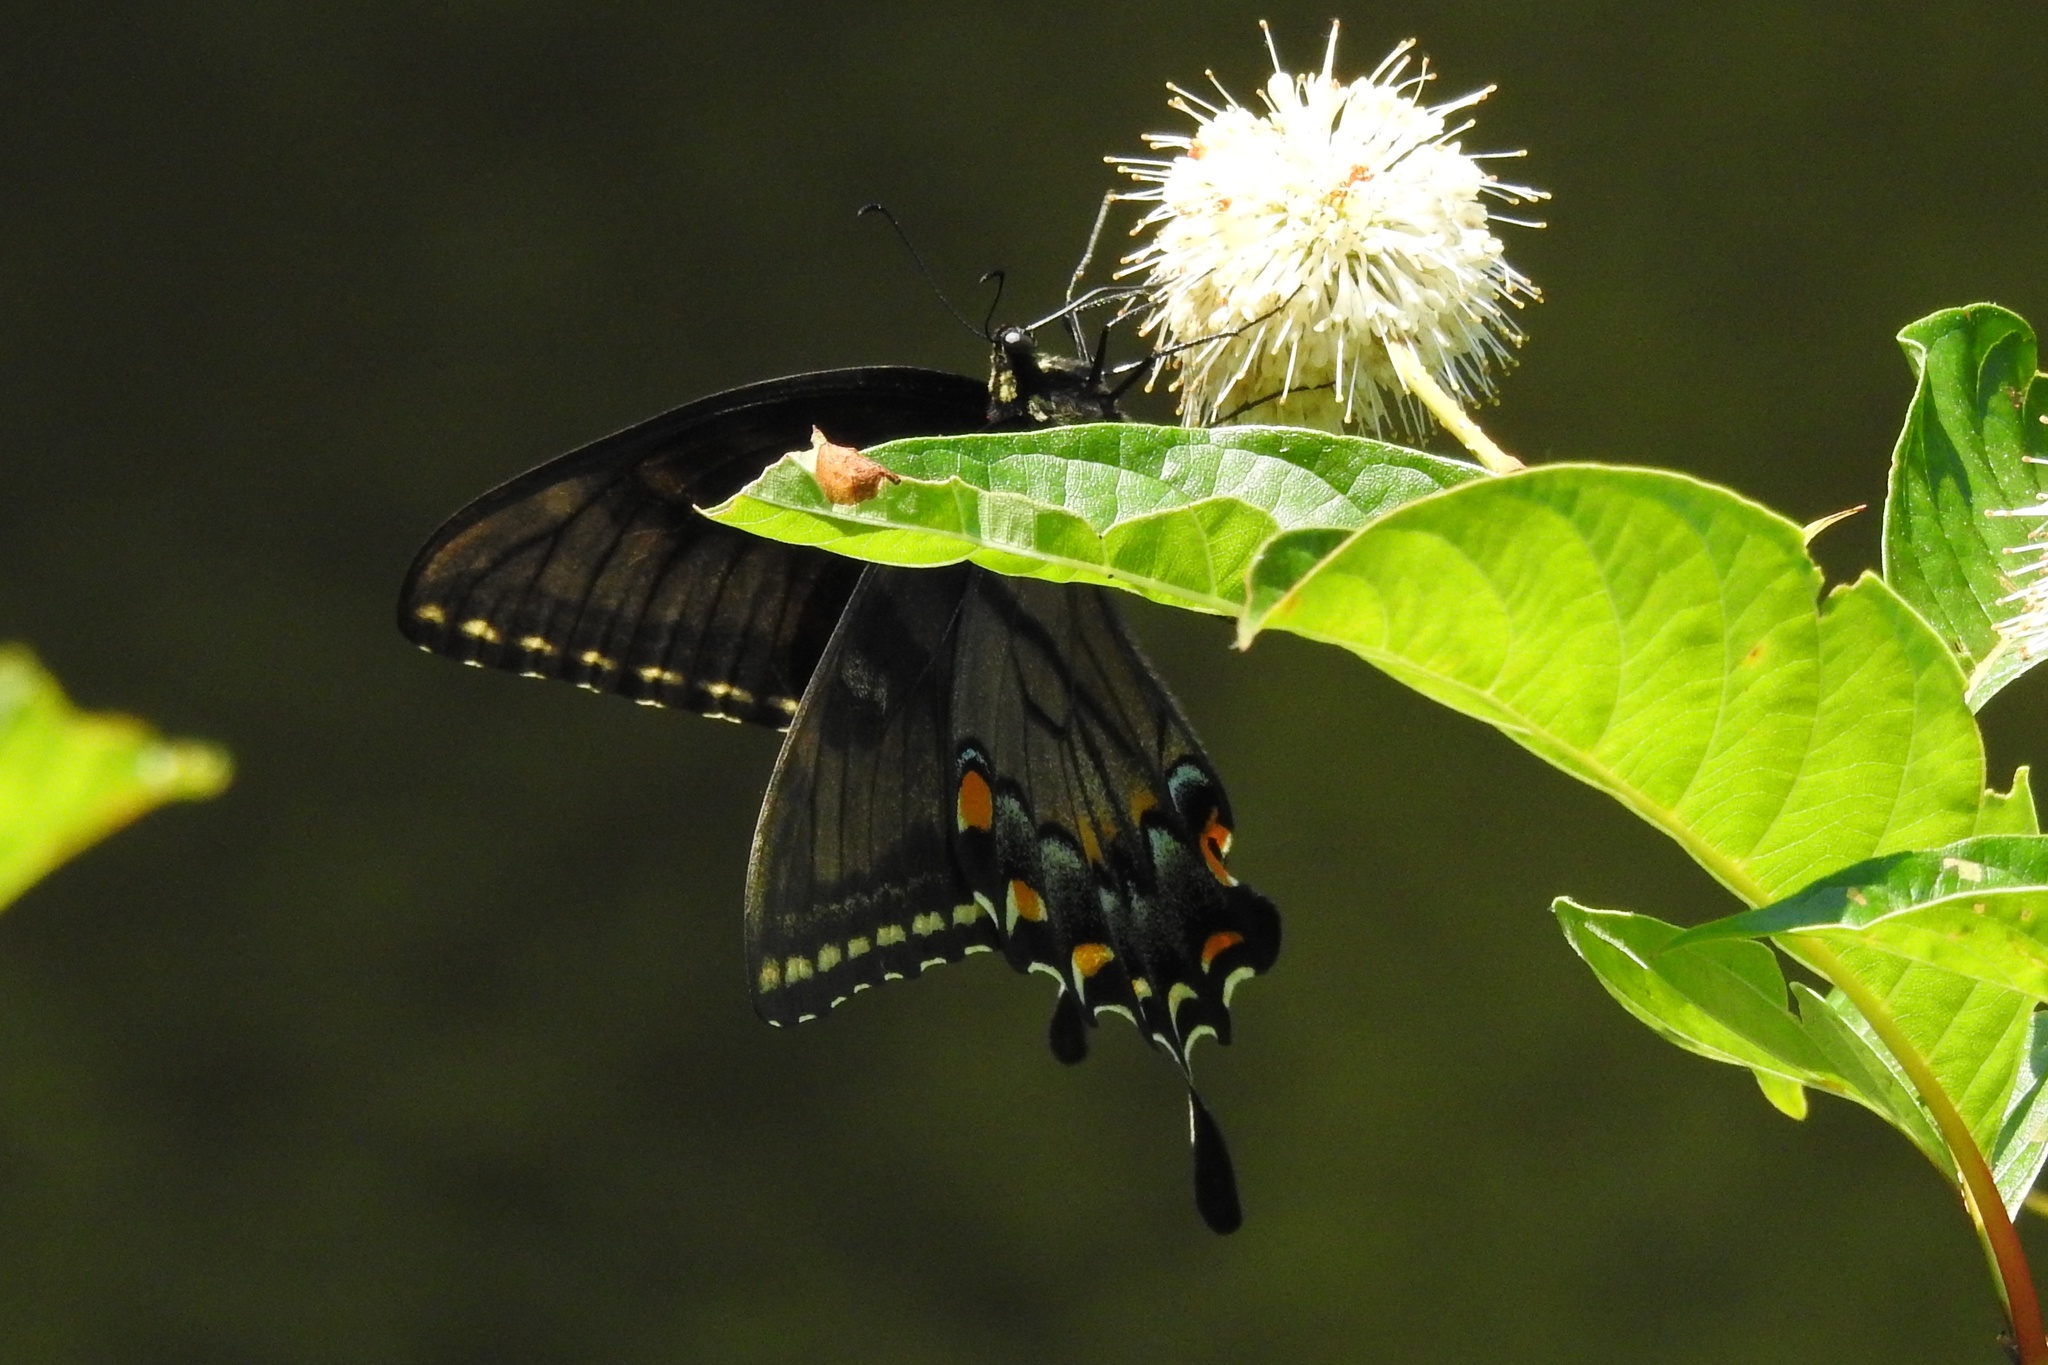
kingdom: Animalia
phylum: Arthropoda
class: Insecta
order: Lepidoptera
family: Papilionidae
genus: Papilio
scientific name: Papilio glaucus
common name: Tiger swallowtail
